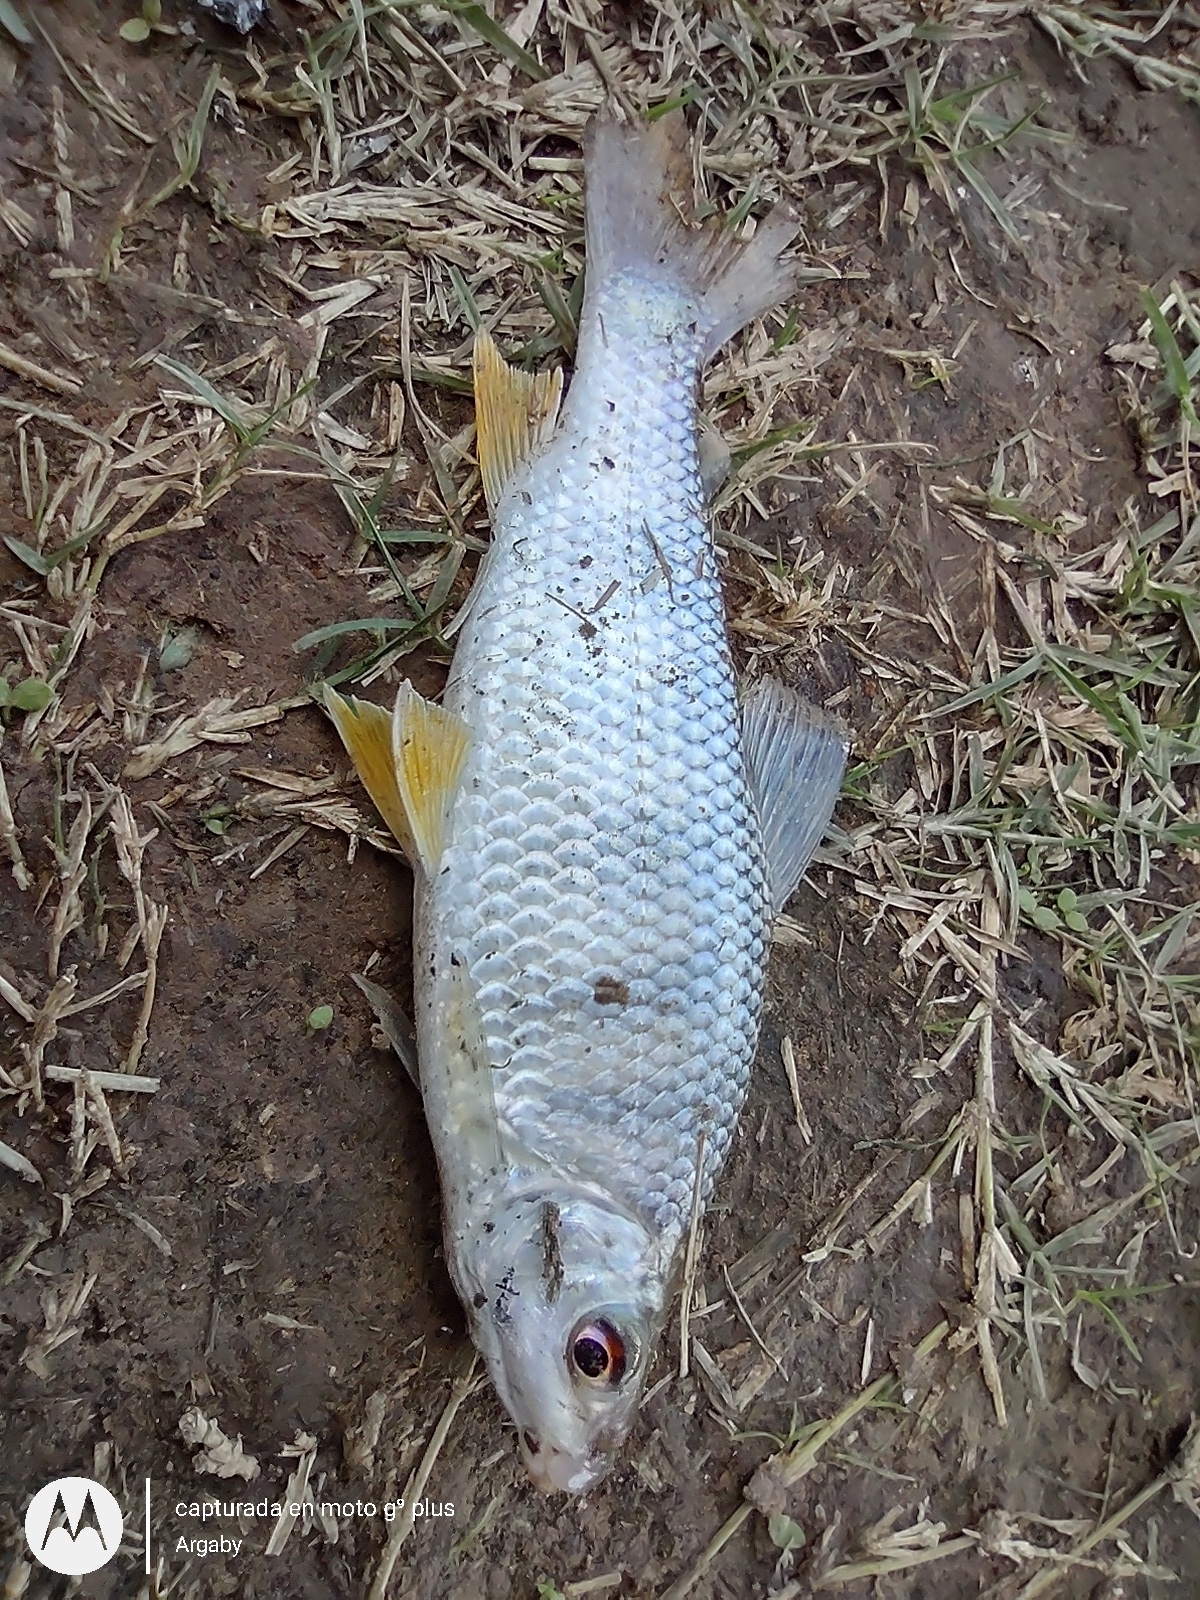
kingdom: Animalia
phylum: Chordata
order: Characiformes
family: Anostomidae
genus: Leporinus
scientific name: Leporinus obtusidens
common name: Characin
